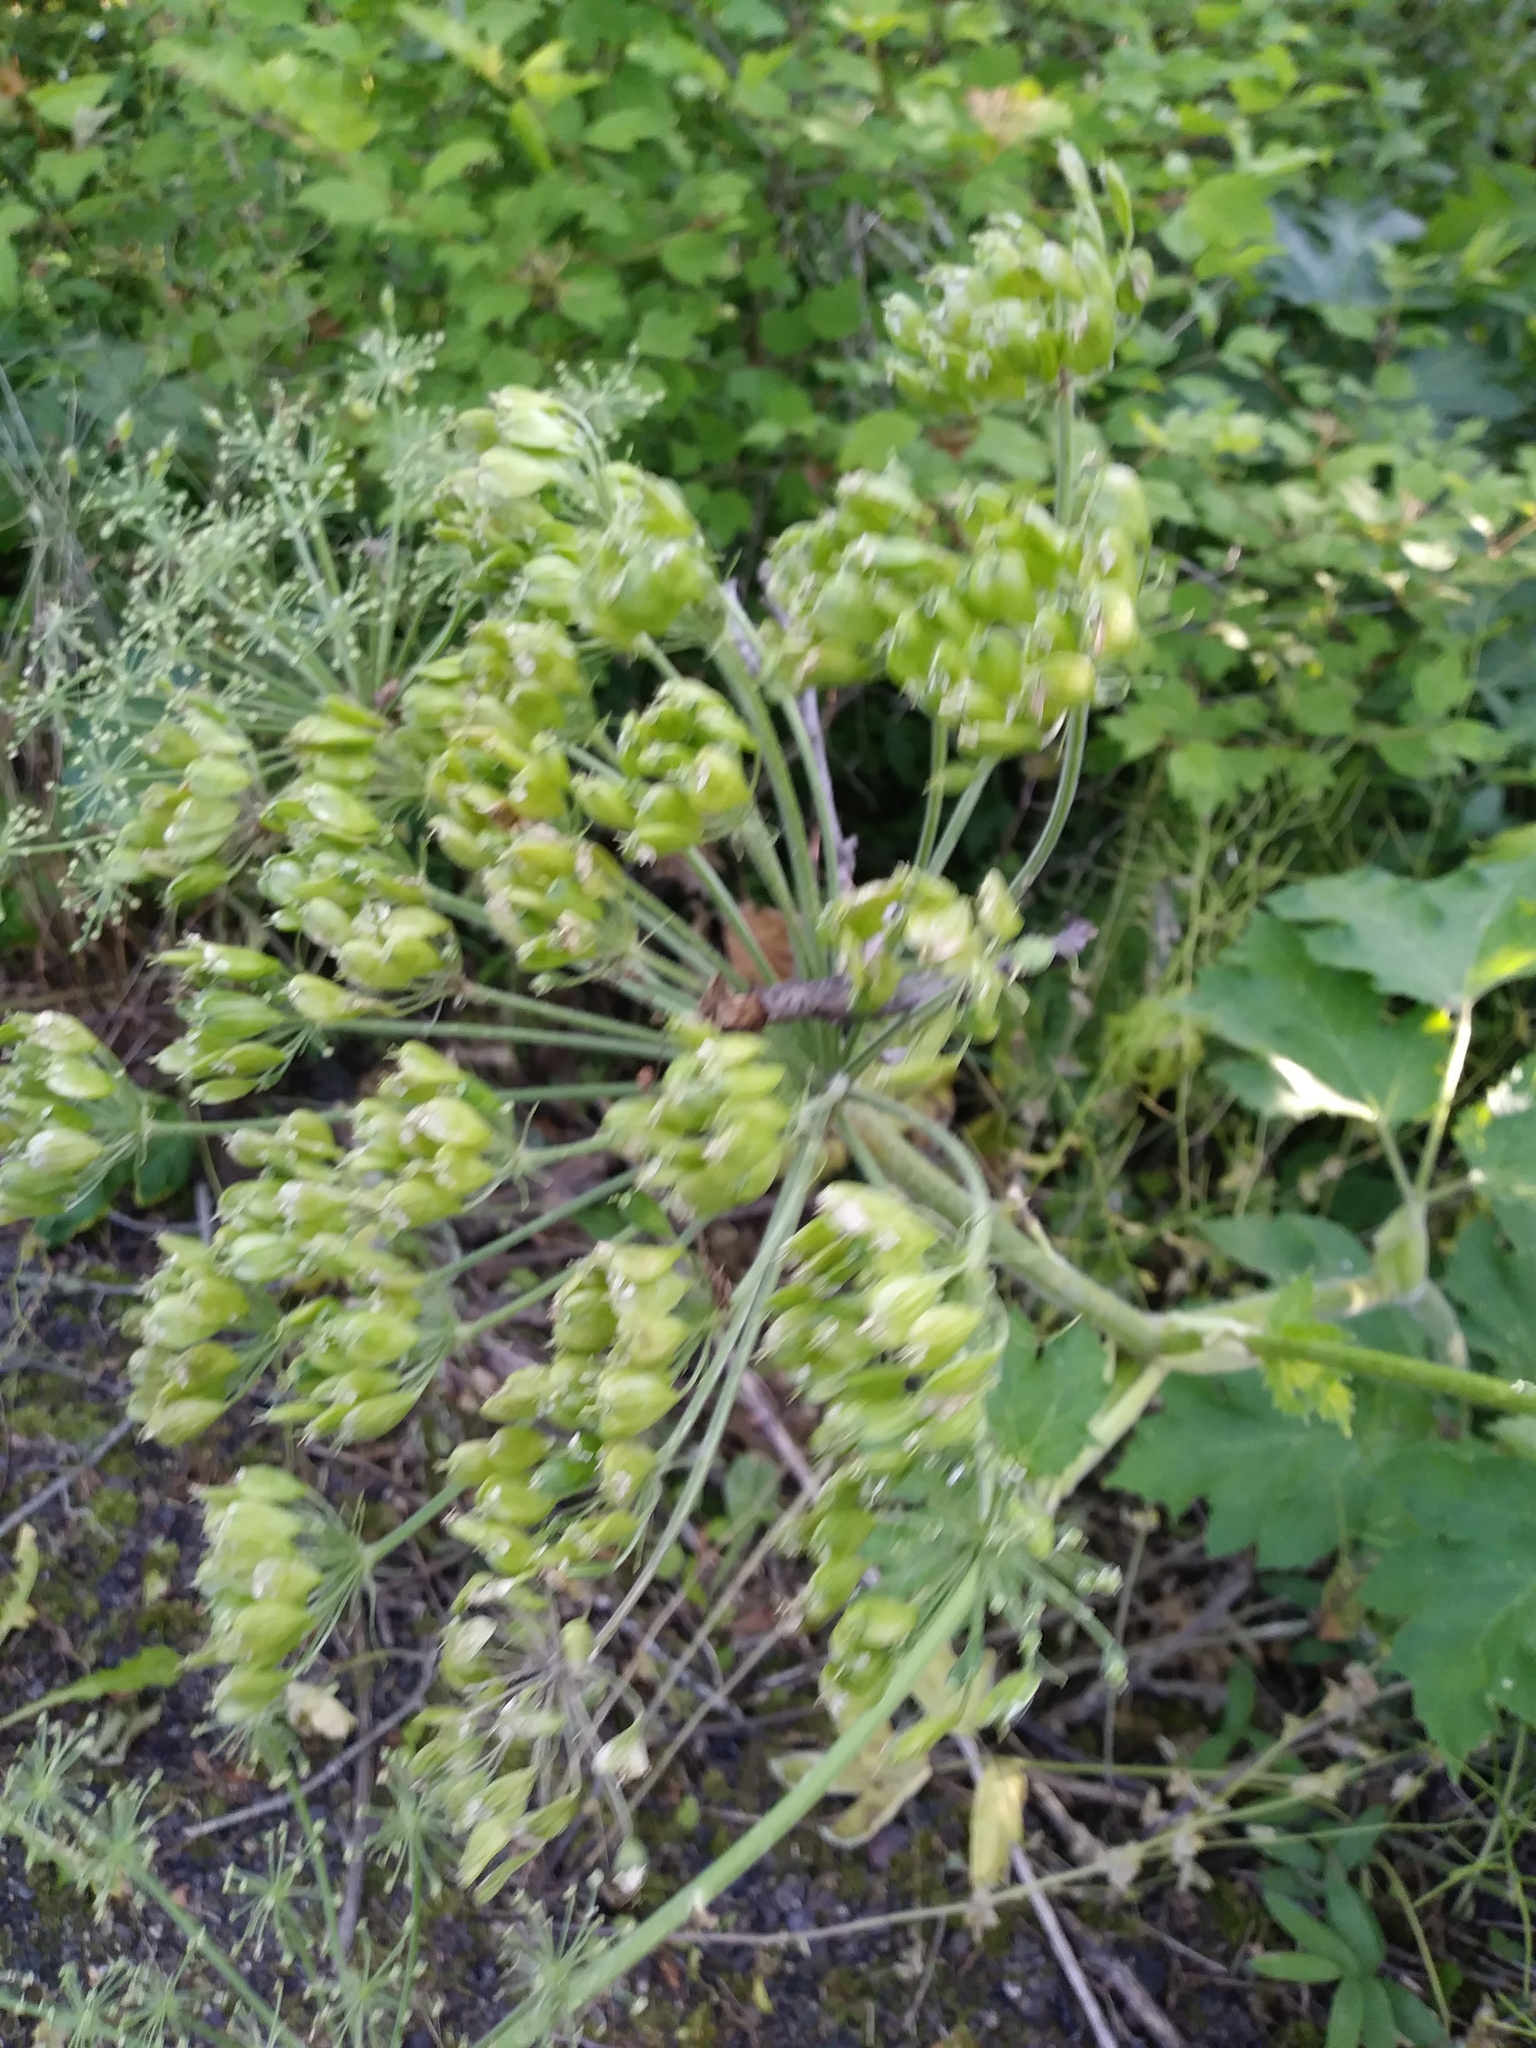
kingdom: Plantae
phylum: Tracheophyta
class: Magnoliopsida
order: Apiales
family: Apiaceae
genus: Heracleum
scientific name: Heracleum maximum
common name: American cow parsnip
